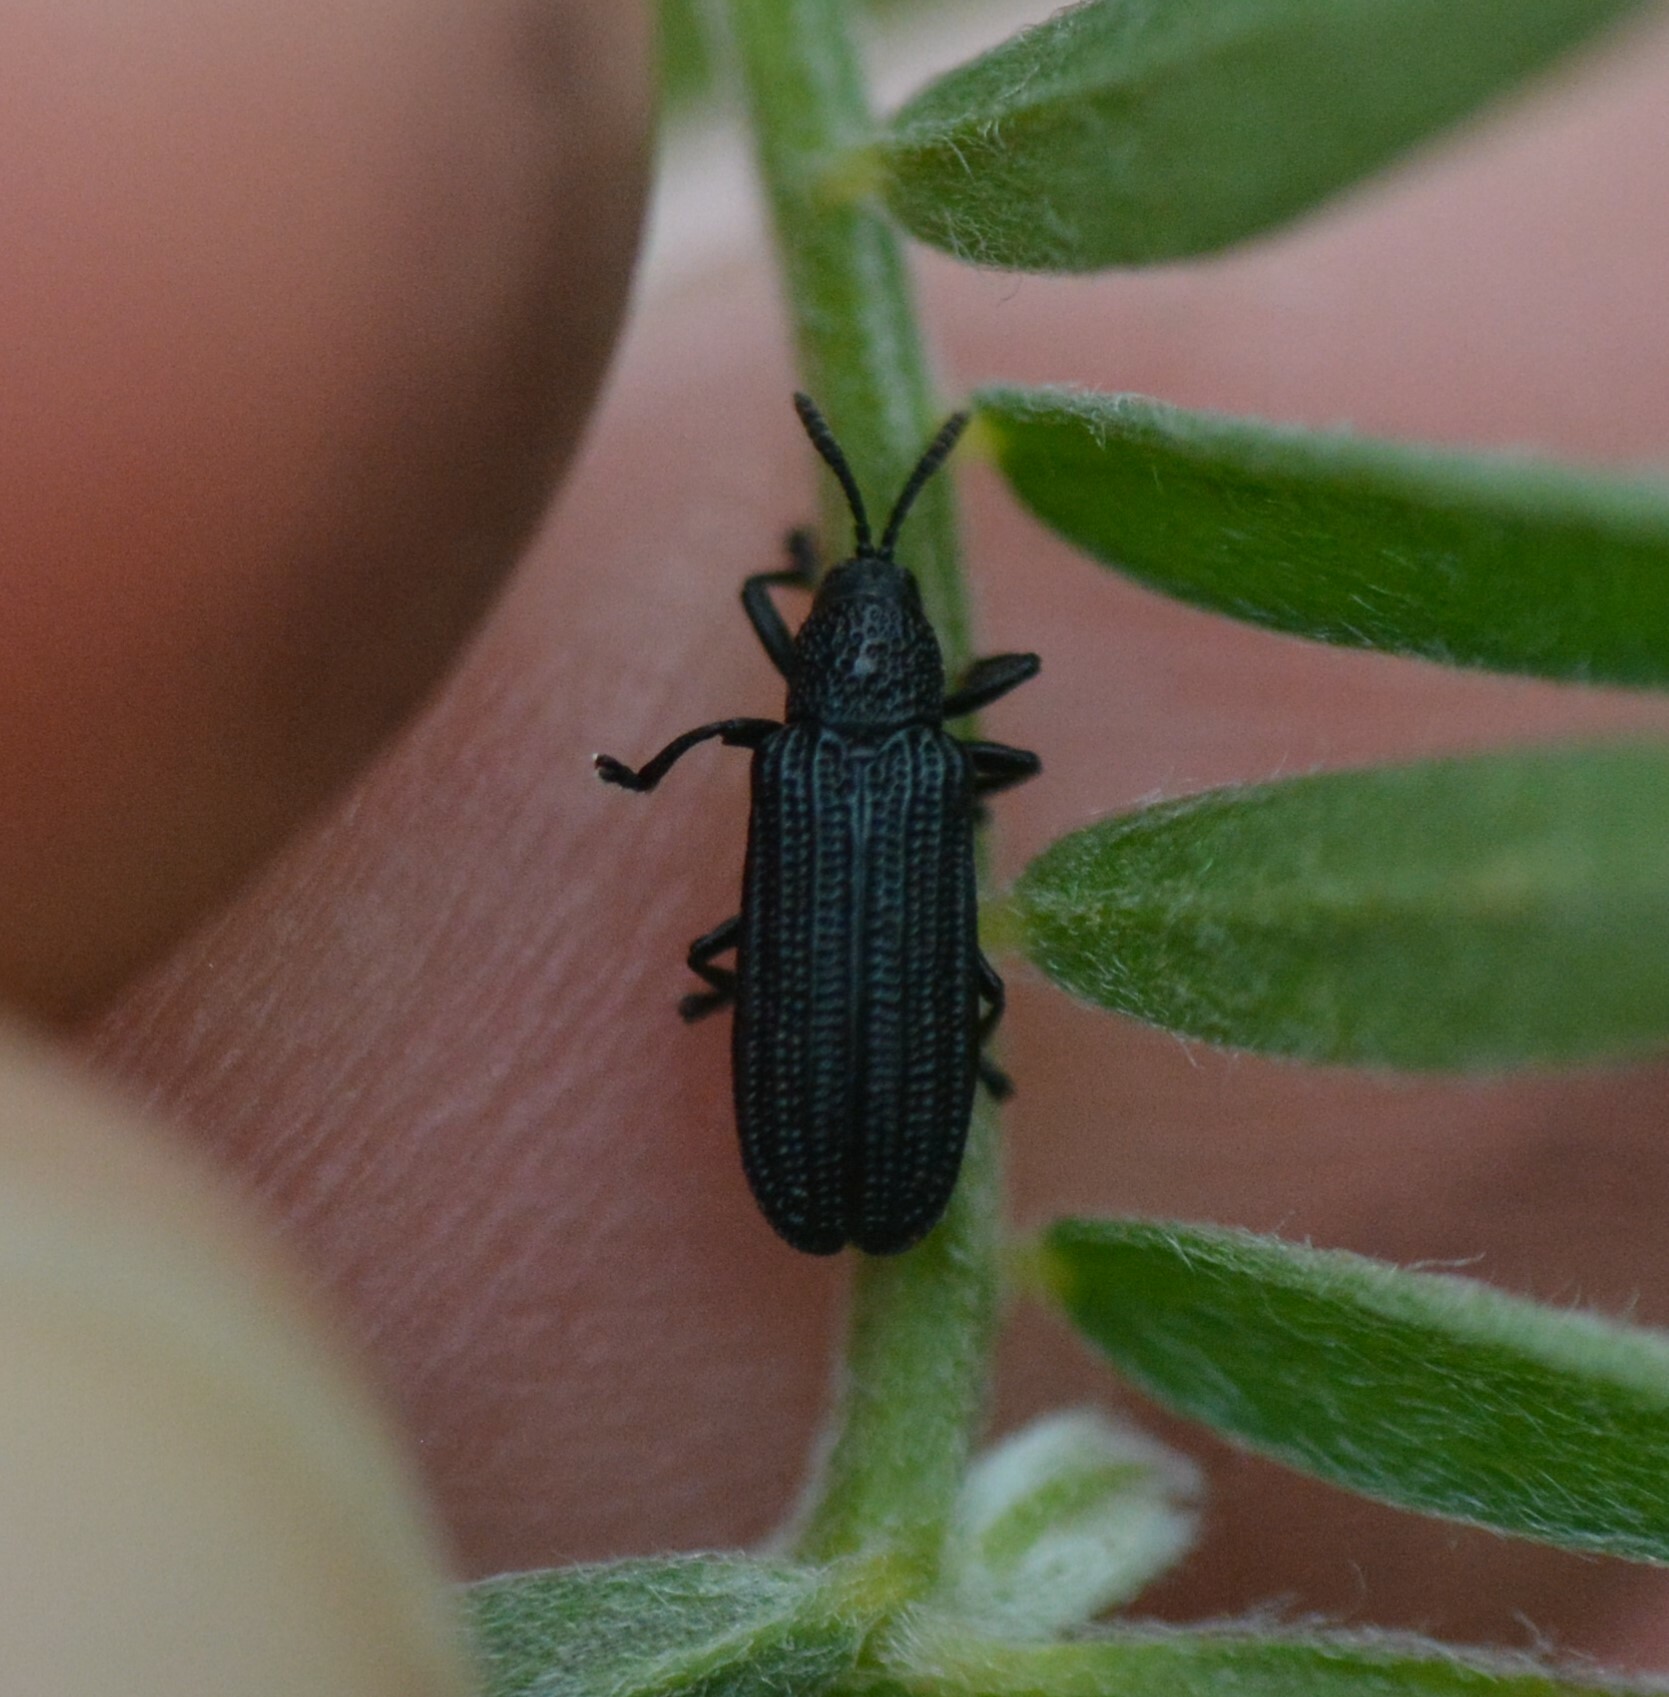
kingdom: Animalia
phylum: Arthropoda
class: Insecta
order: Coleoptera
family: Chrysomelidae
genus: Anisostena
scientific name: Anisostena nigrita
